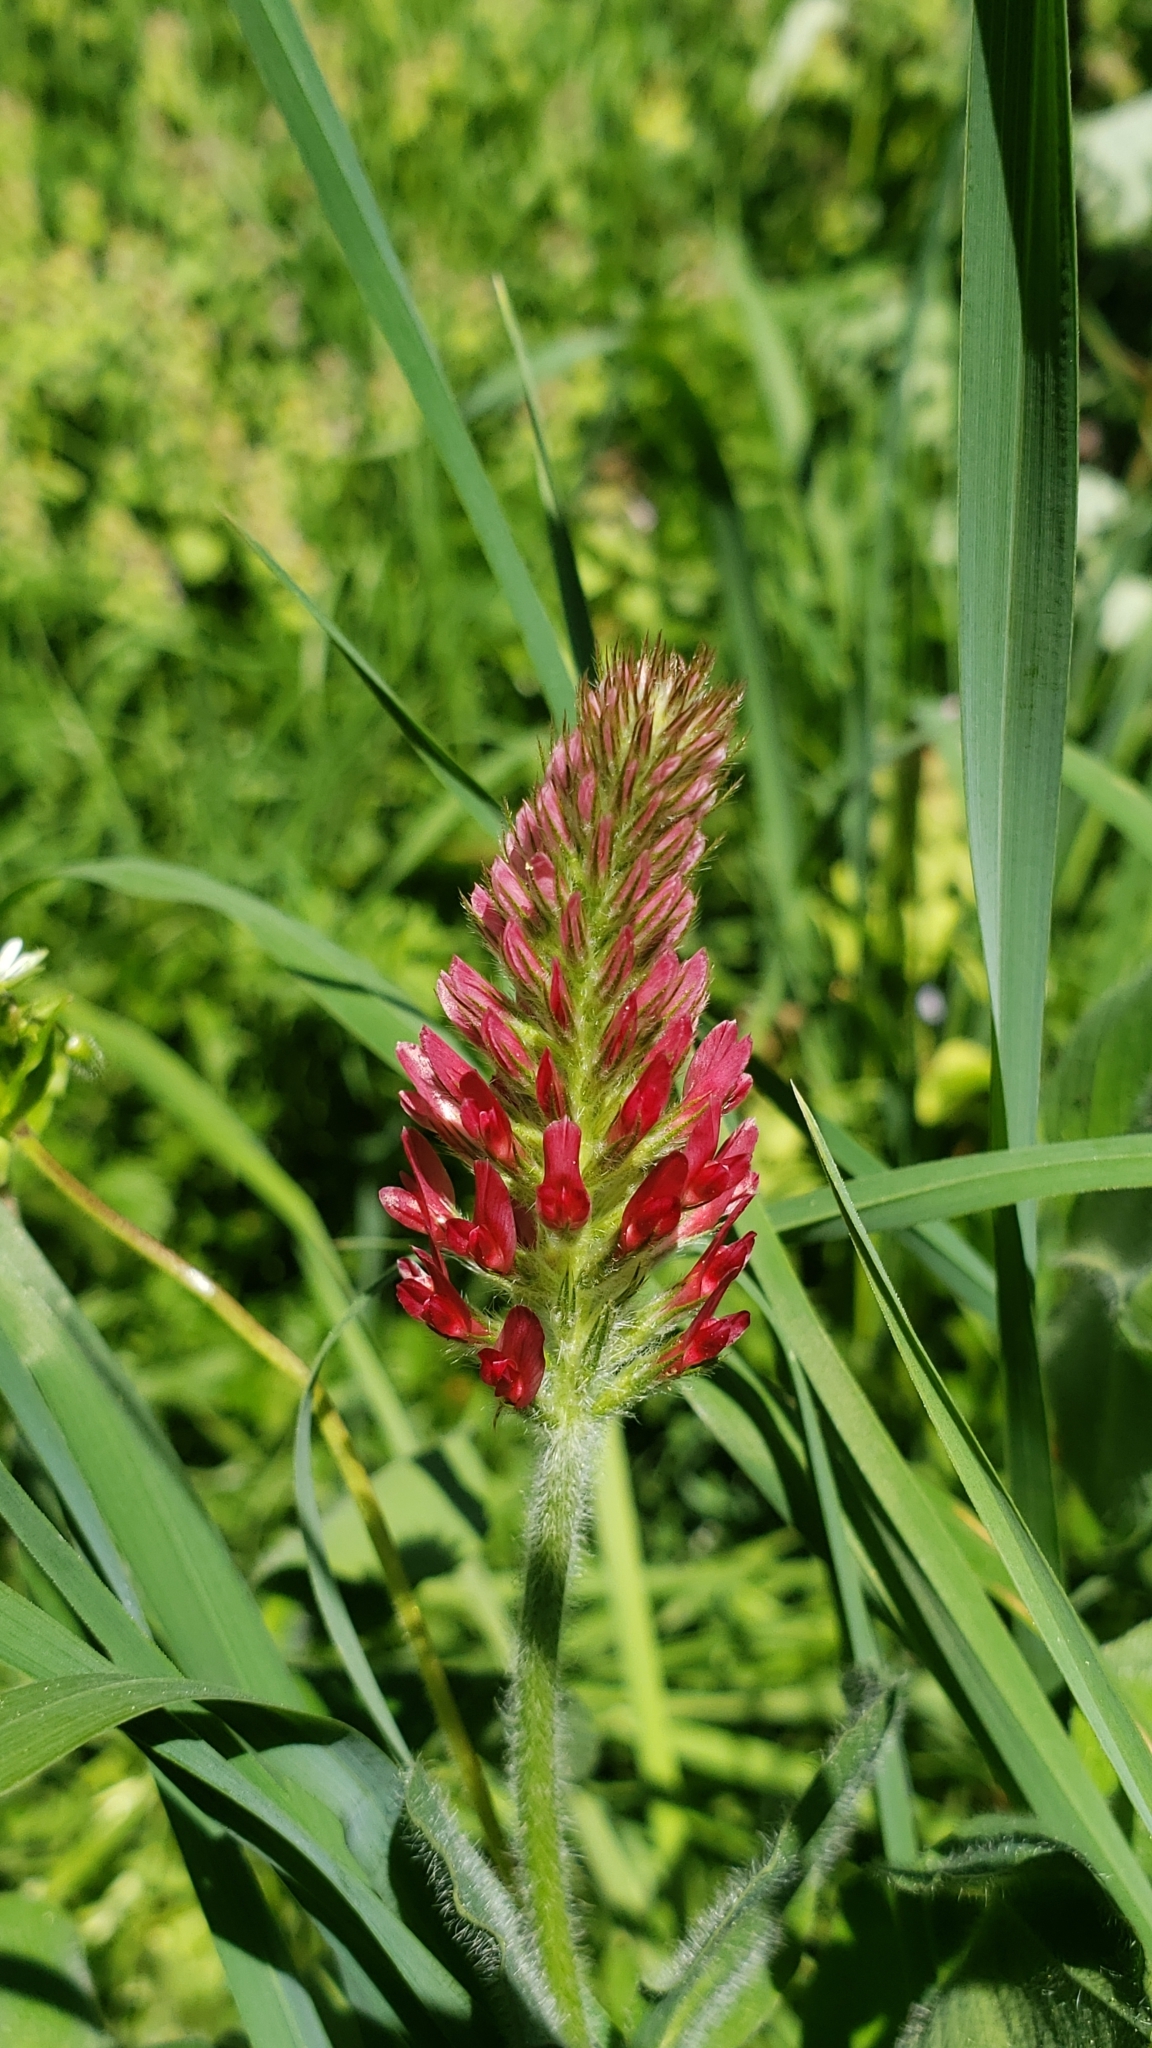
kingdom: Plantae
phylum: Tracheophyta
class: Magnoliopsida
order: Fabales
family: Fabaceae
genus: Trifolium
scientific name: Trifolium incarnatum
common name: Crimson clover
